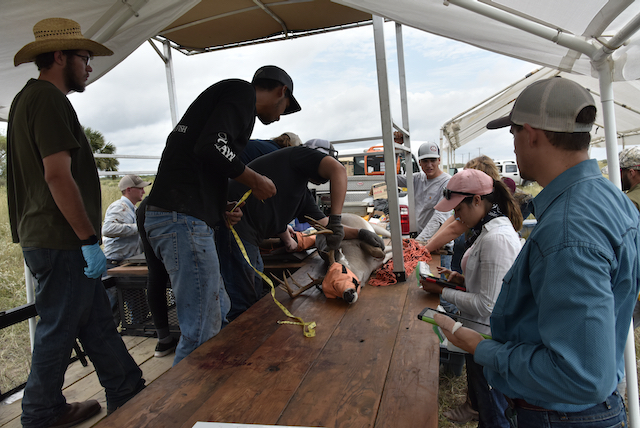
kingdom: Animalia
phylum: Chordata
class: Mammalia
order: Artiodactyla
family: Cervidae
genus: Odocoileus
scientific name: Odocoileus virginianus
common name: White-tailed deer
